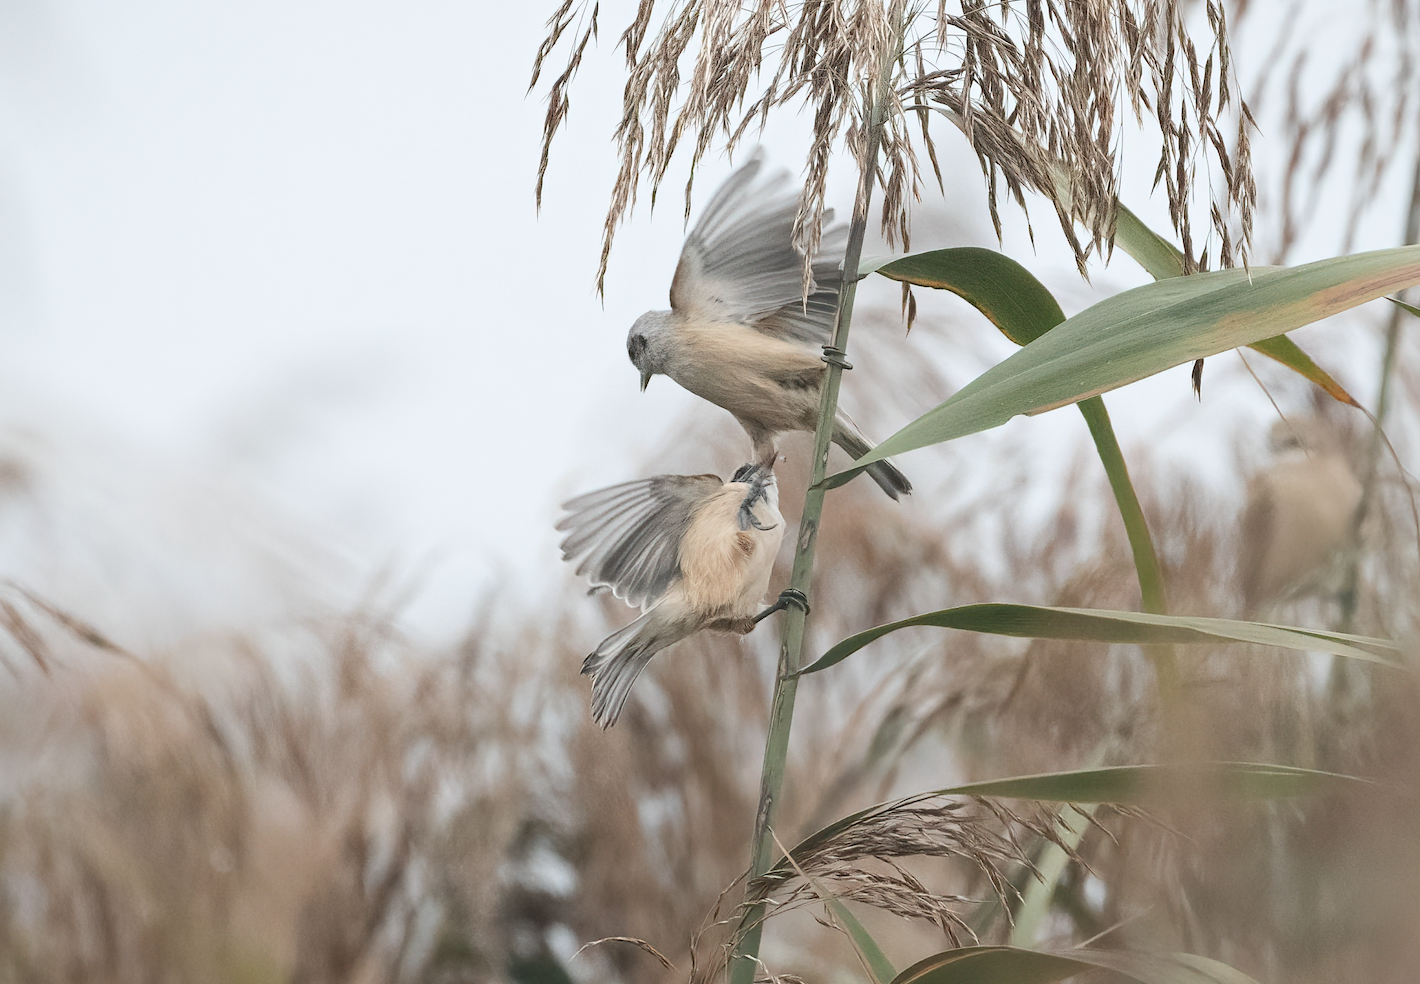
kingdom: Animalia
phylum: Chordata
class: Aves
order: Passeriformes
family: Remizidae
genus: Remiz
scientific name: Remiz pendulinus
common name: Eurasian penduline tit
